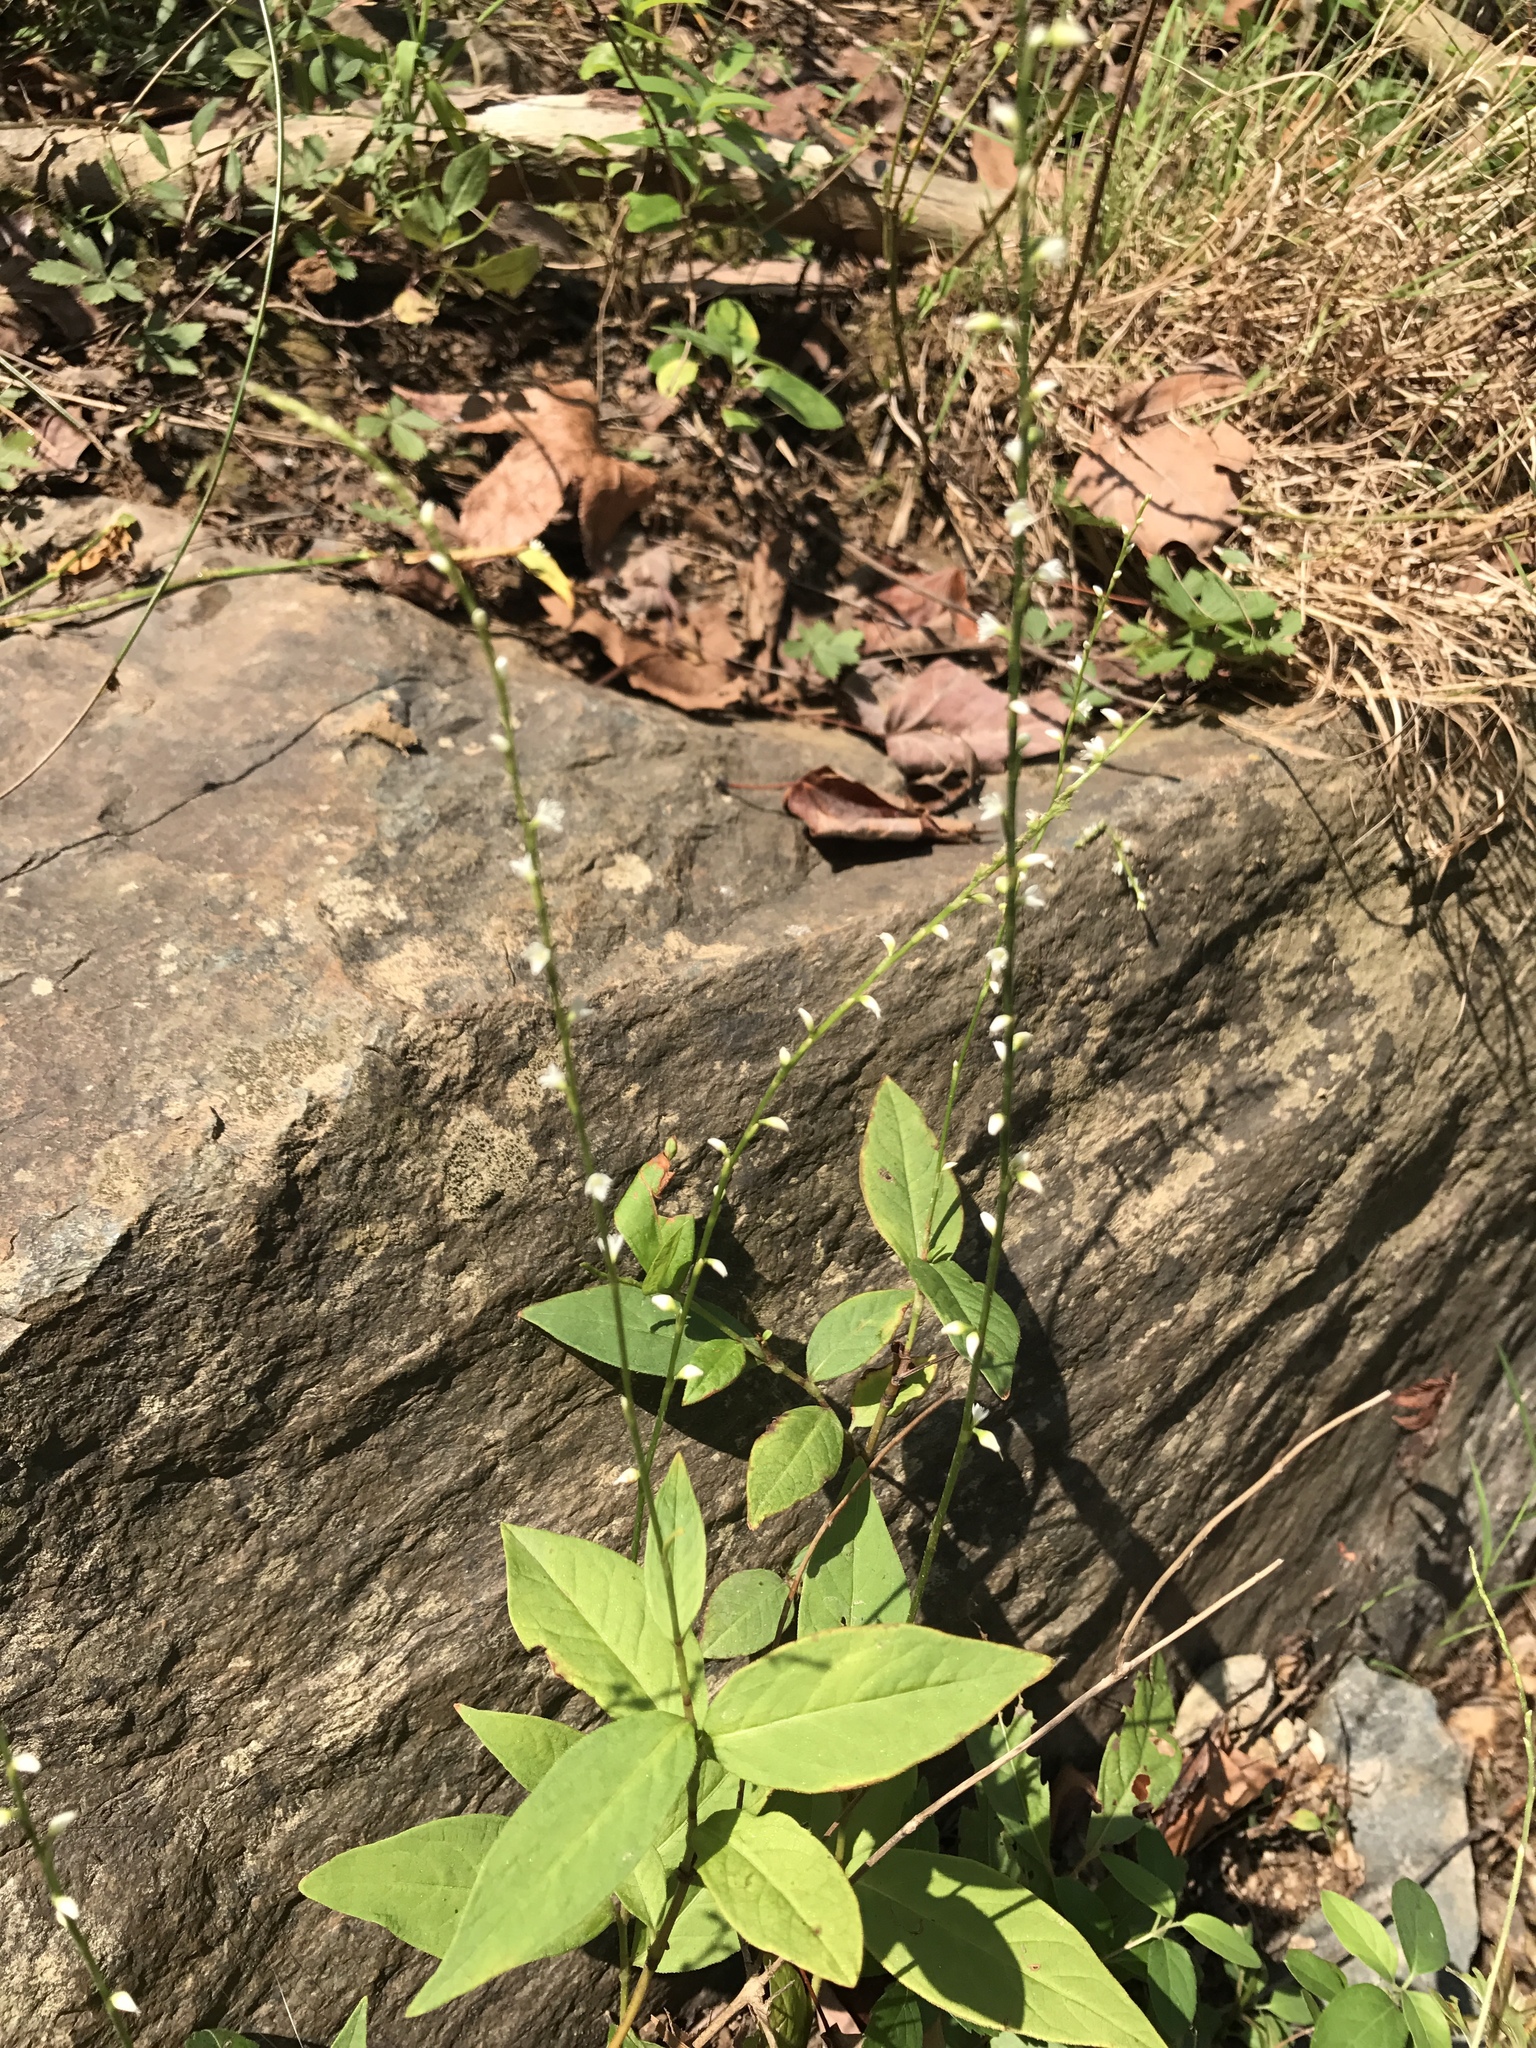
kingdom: Plantae
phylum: Tracheophyta
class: Magnoliopsida
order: Caryophyllales
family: Polygonaceae
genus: Persicaria
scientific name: Persicaria virginiana
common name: Jumpseed
